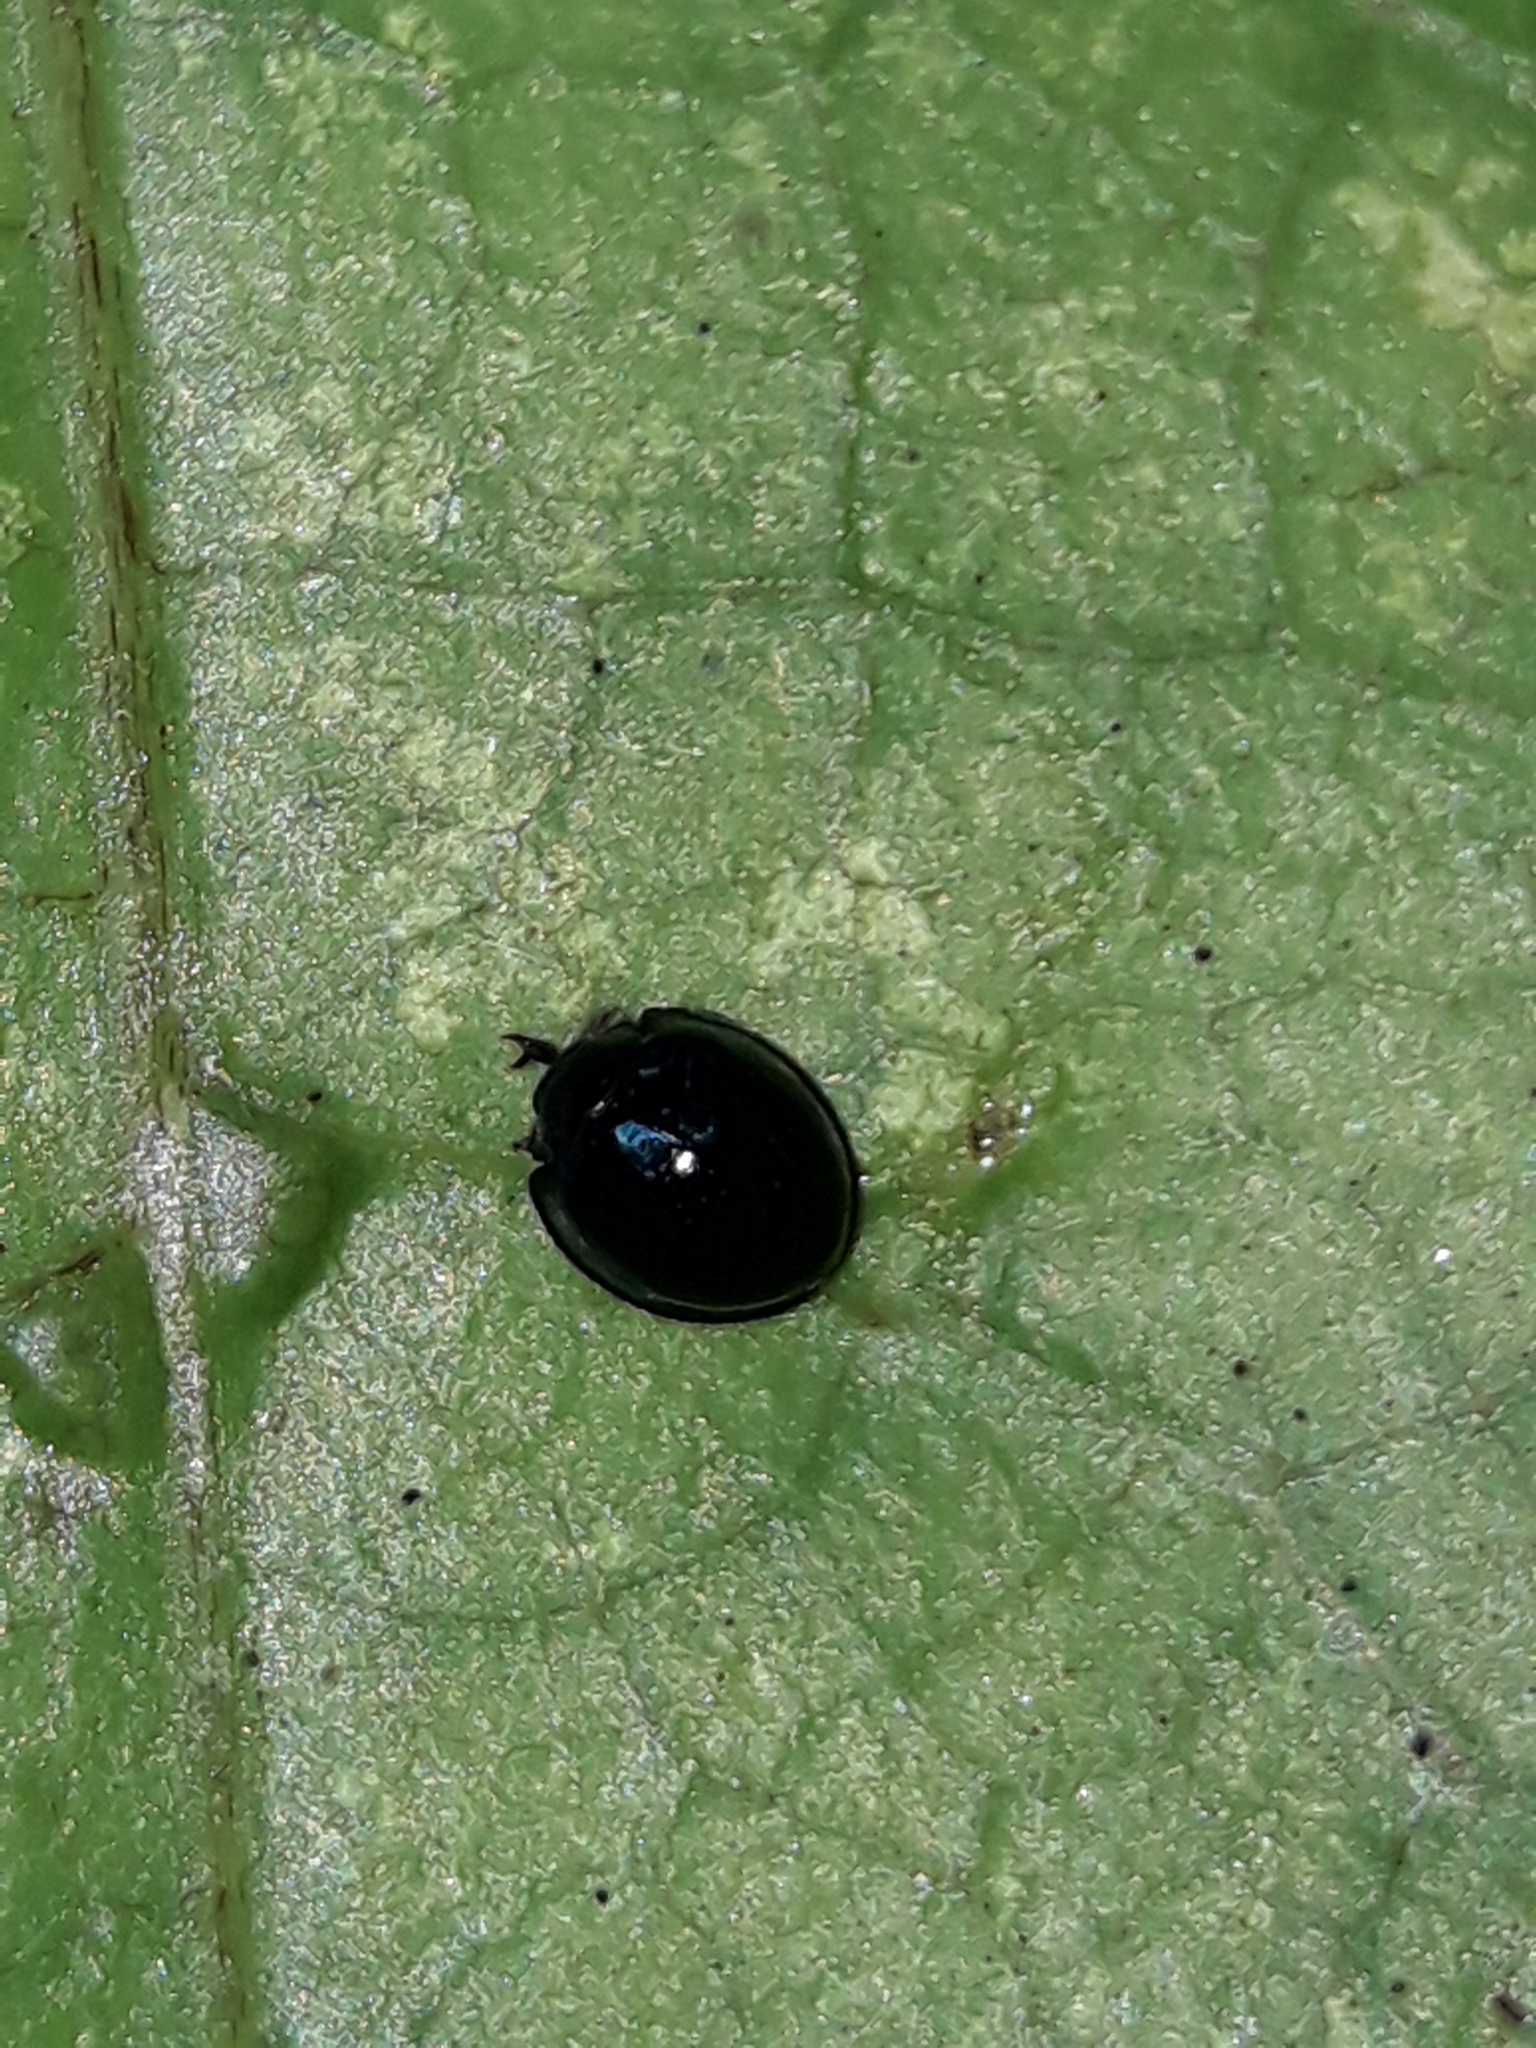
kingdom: Animalia
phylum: Arthropoda
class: Insecta
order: Coleoptera
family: Coccinellidae
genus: Halmus
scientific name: Halmus chalybeus
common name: Steel blue ladybird beetle
